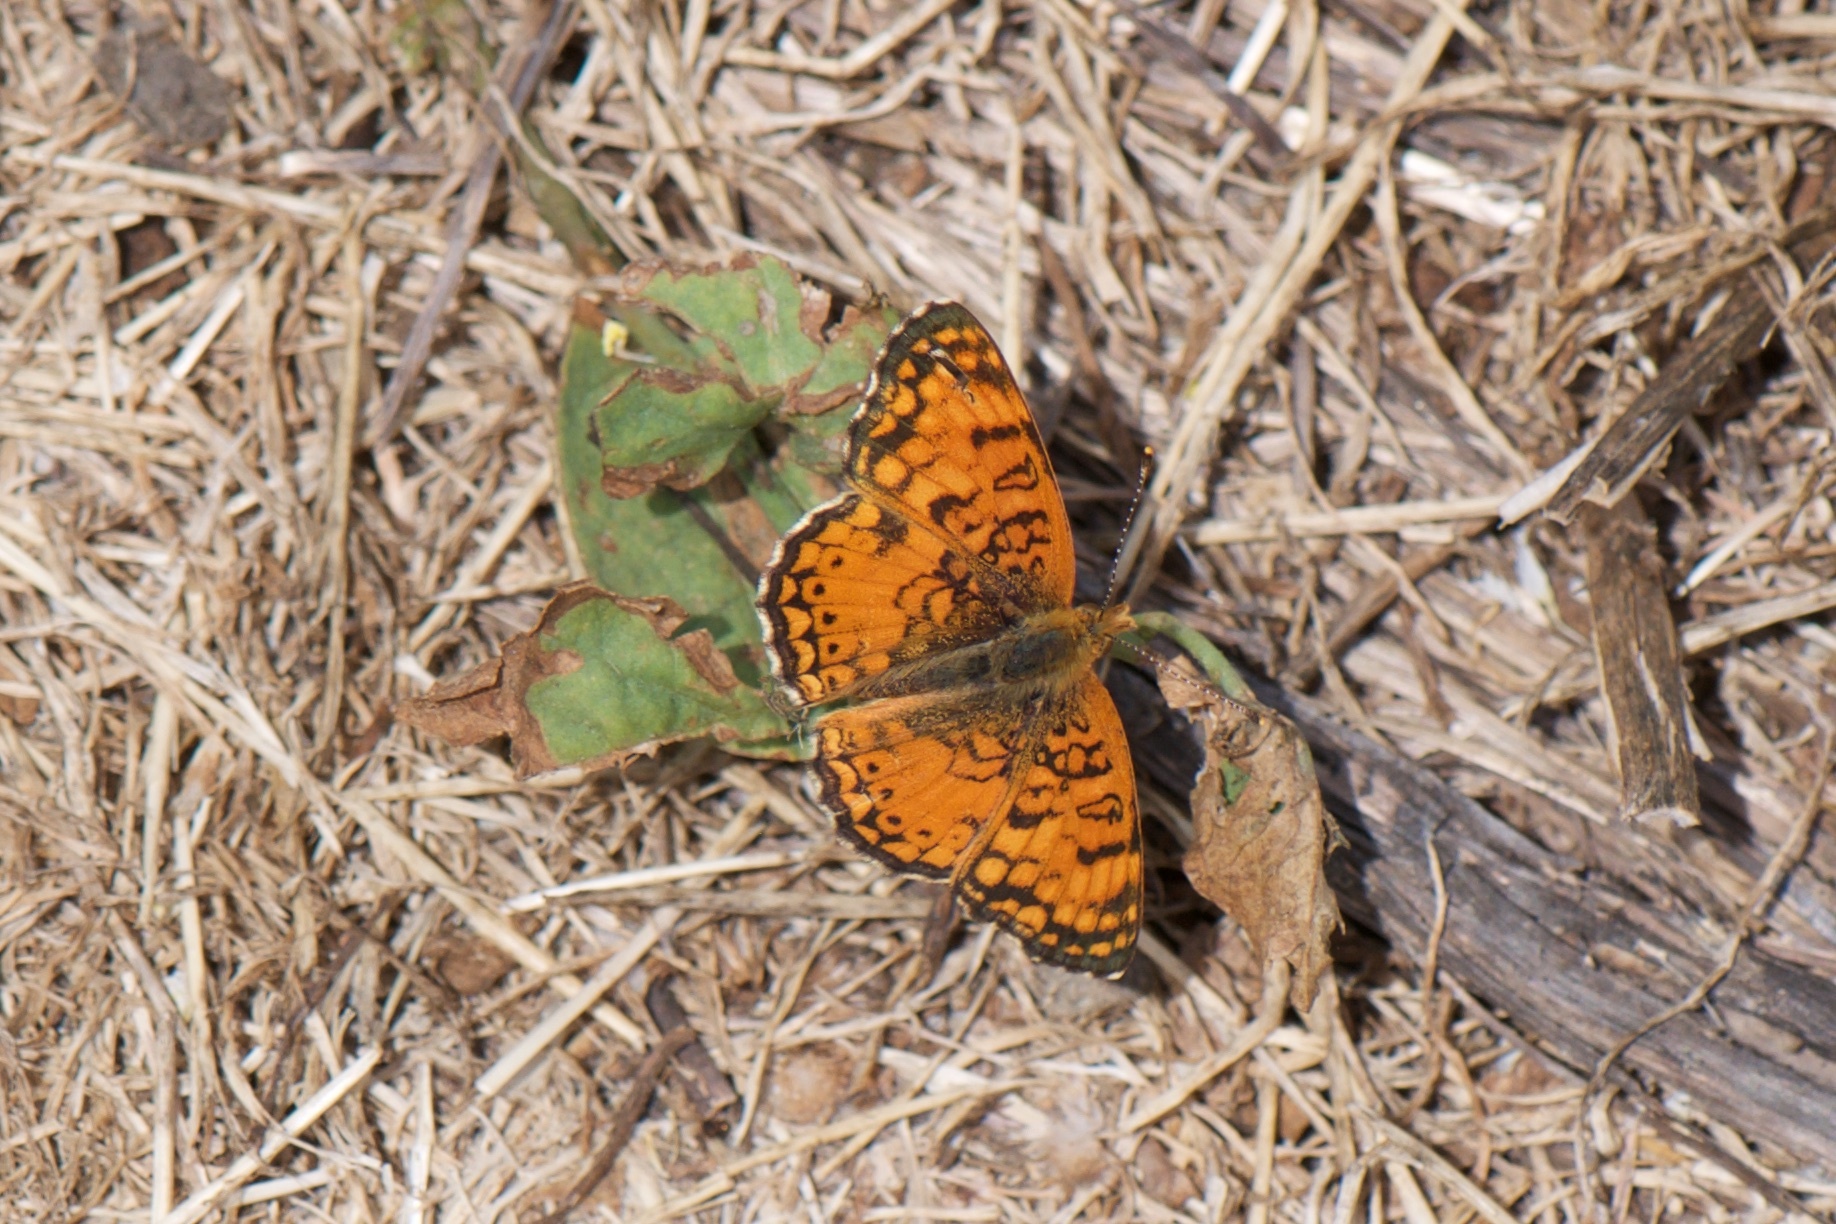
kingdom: Animalia
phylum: Arthropoda
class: Insecta
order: Lepidoptera
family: Nymphalidae
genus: Eresia
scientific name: Eresia aveyrona
